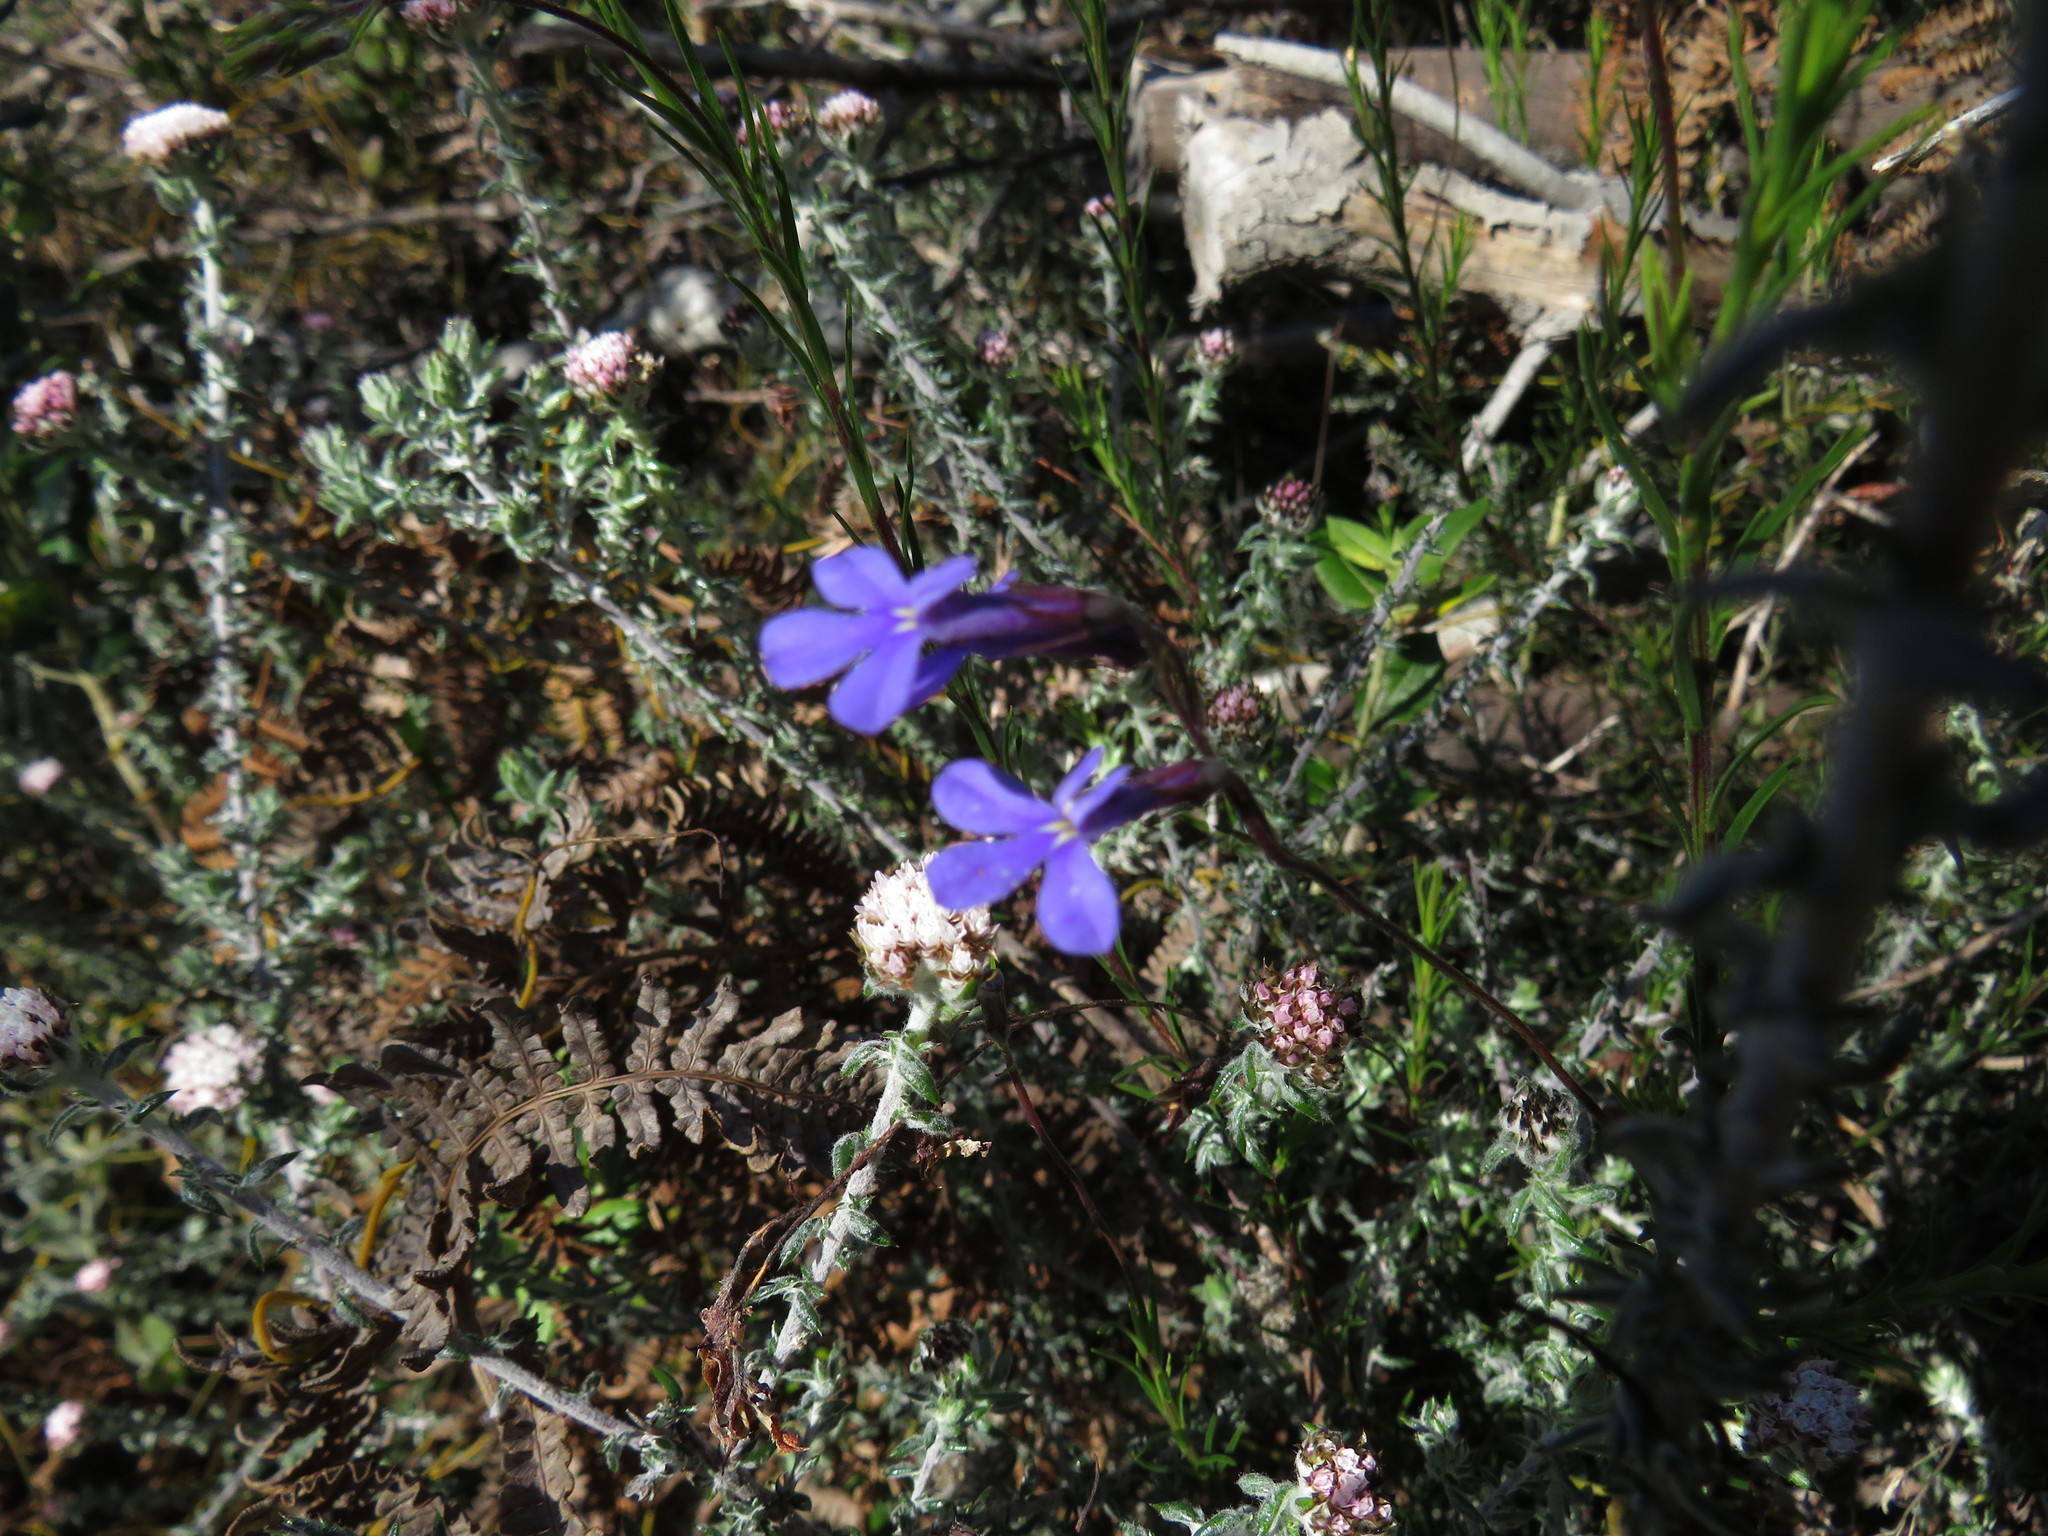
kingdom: Plantae
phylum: Tracheophyta
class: Magnoliopsida
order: Asterales
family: Campanulaceae
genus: Lobelia
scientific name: Lobelia pinifolia
